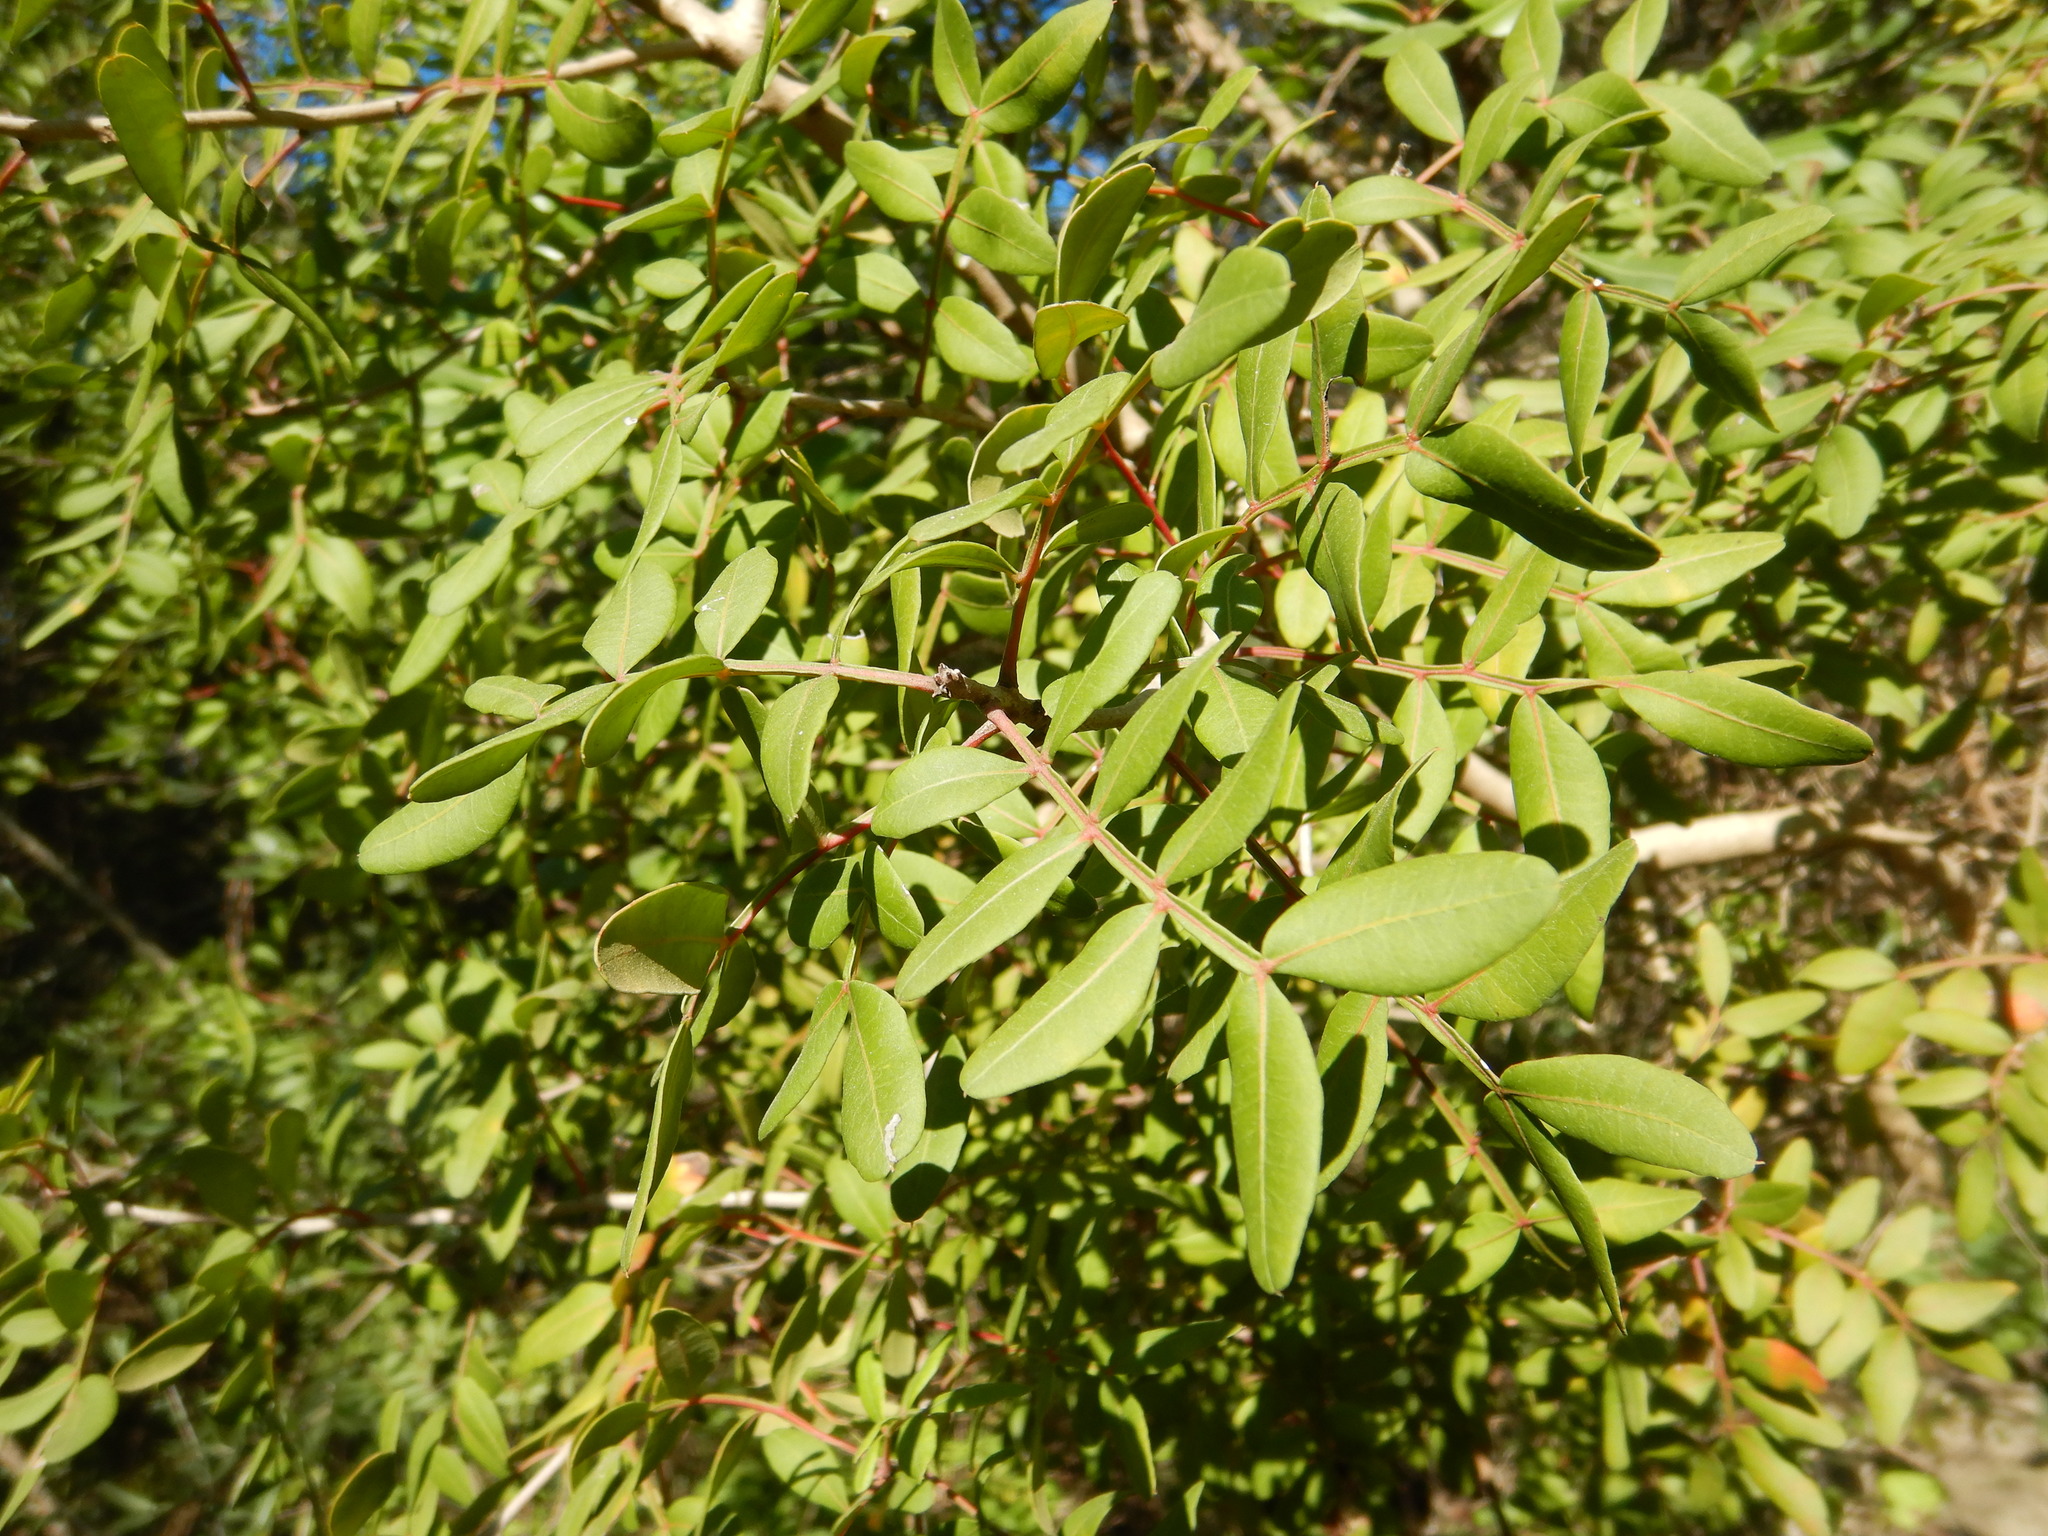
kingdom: Plantae
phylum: Tracheophyta
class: Magnoliopsida
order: Sapindales
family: Anacardiaceae
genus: Pistacia
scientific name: Pistacia lentiscus
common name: Lentisk
